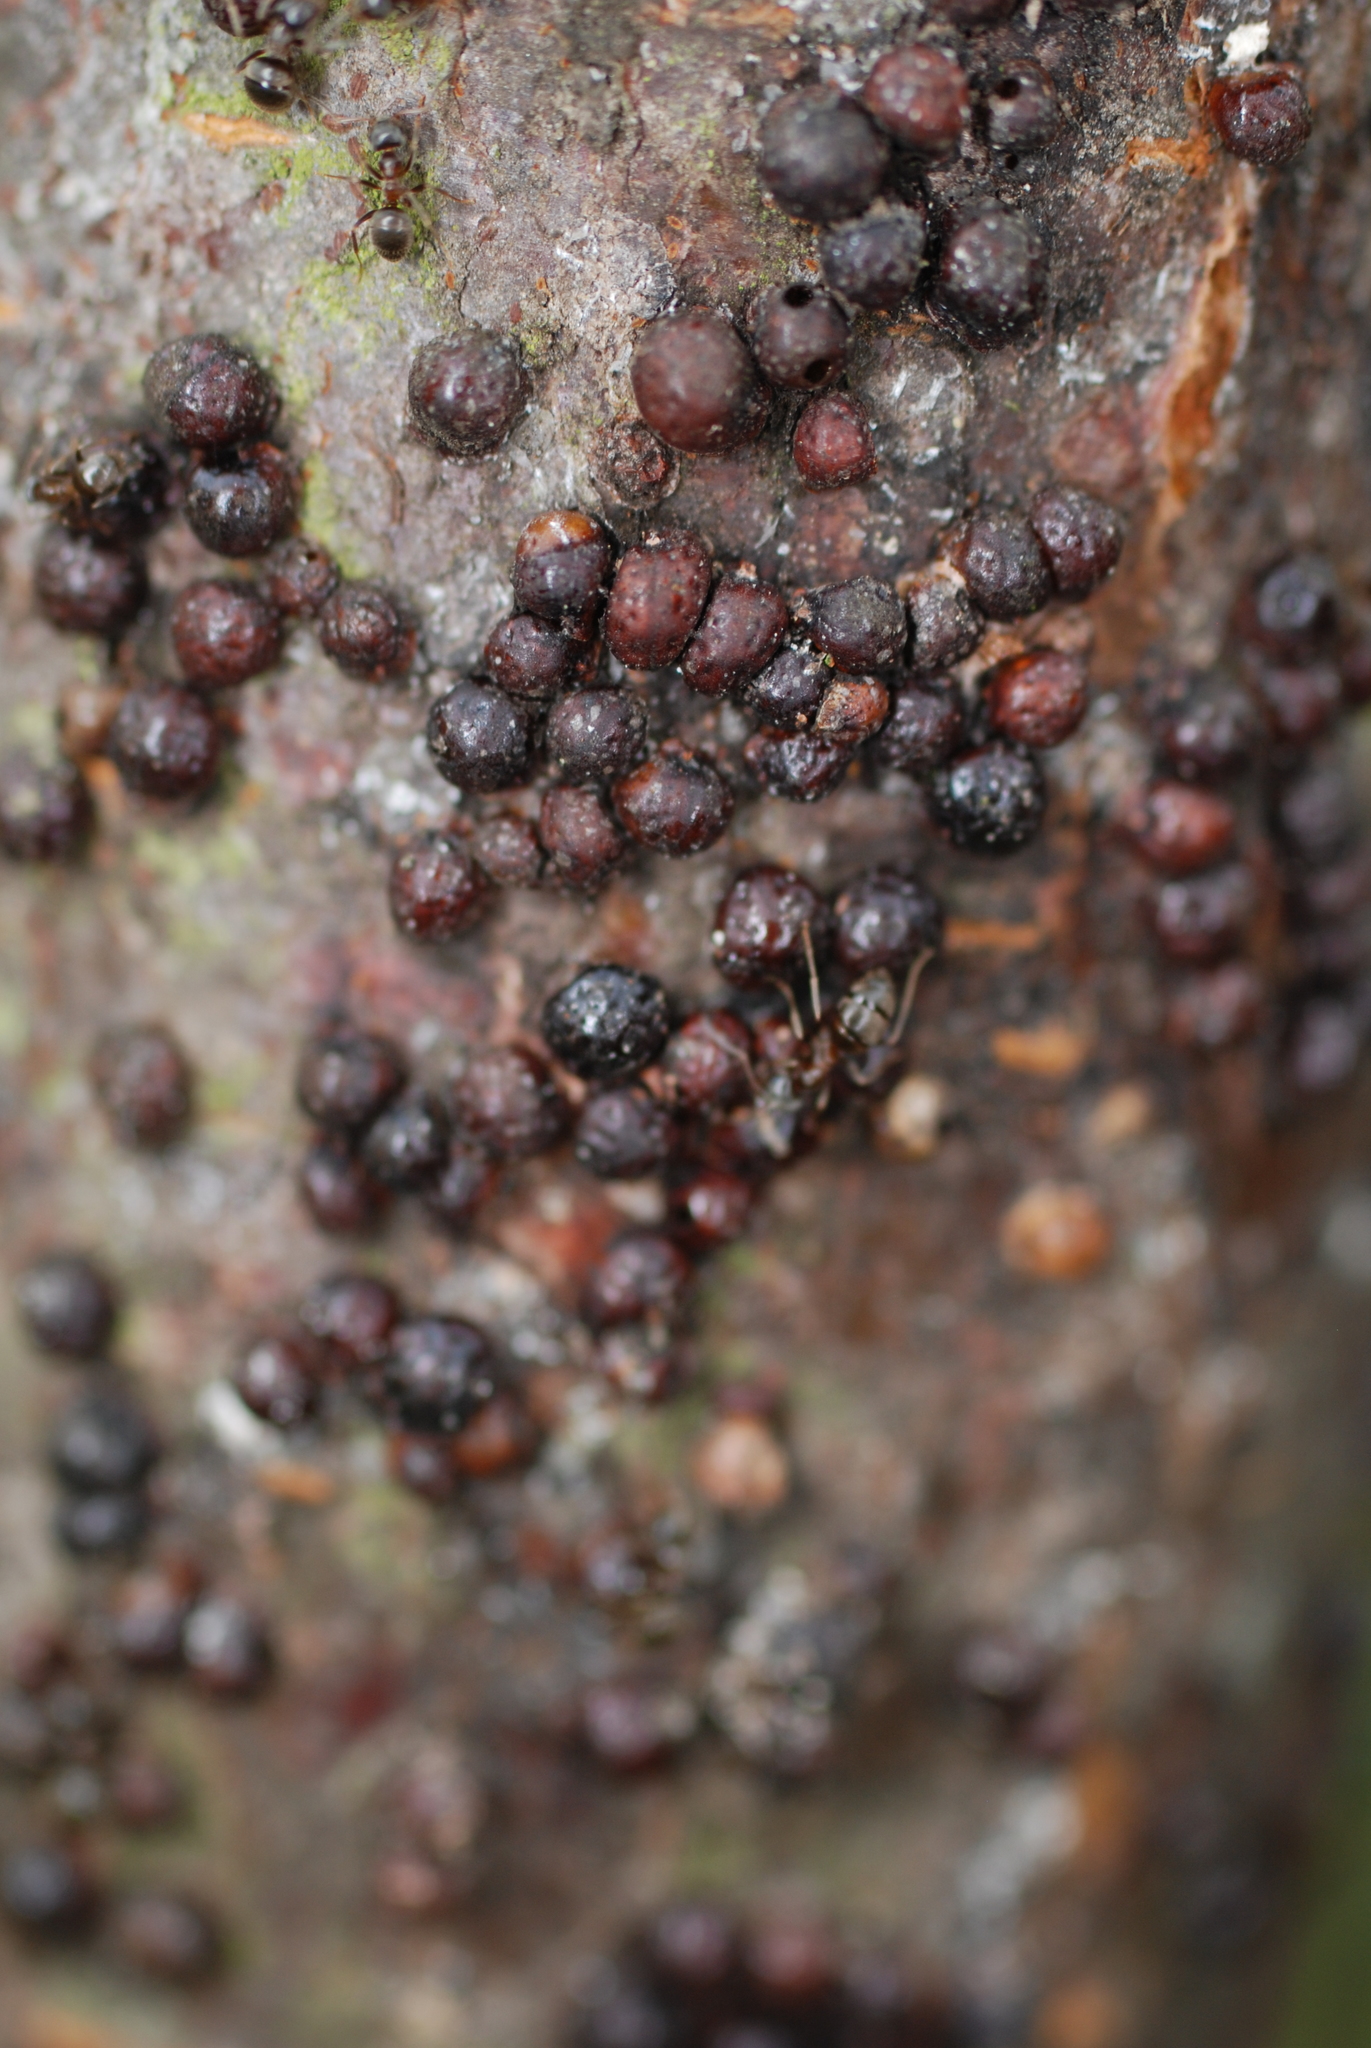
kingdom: Animalia
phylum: Arthropoda
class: Insecta
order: Hemiptera
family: Coccidae
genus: Parthenolecanium
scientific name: Parthenolecanium corni
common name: European fruit lecanium scale
